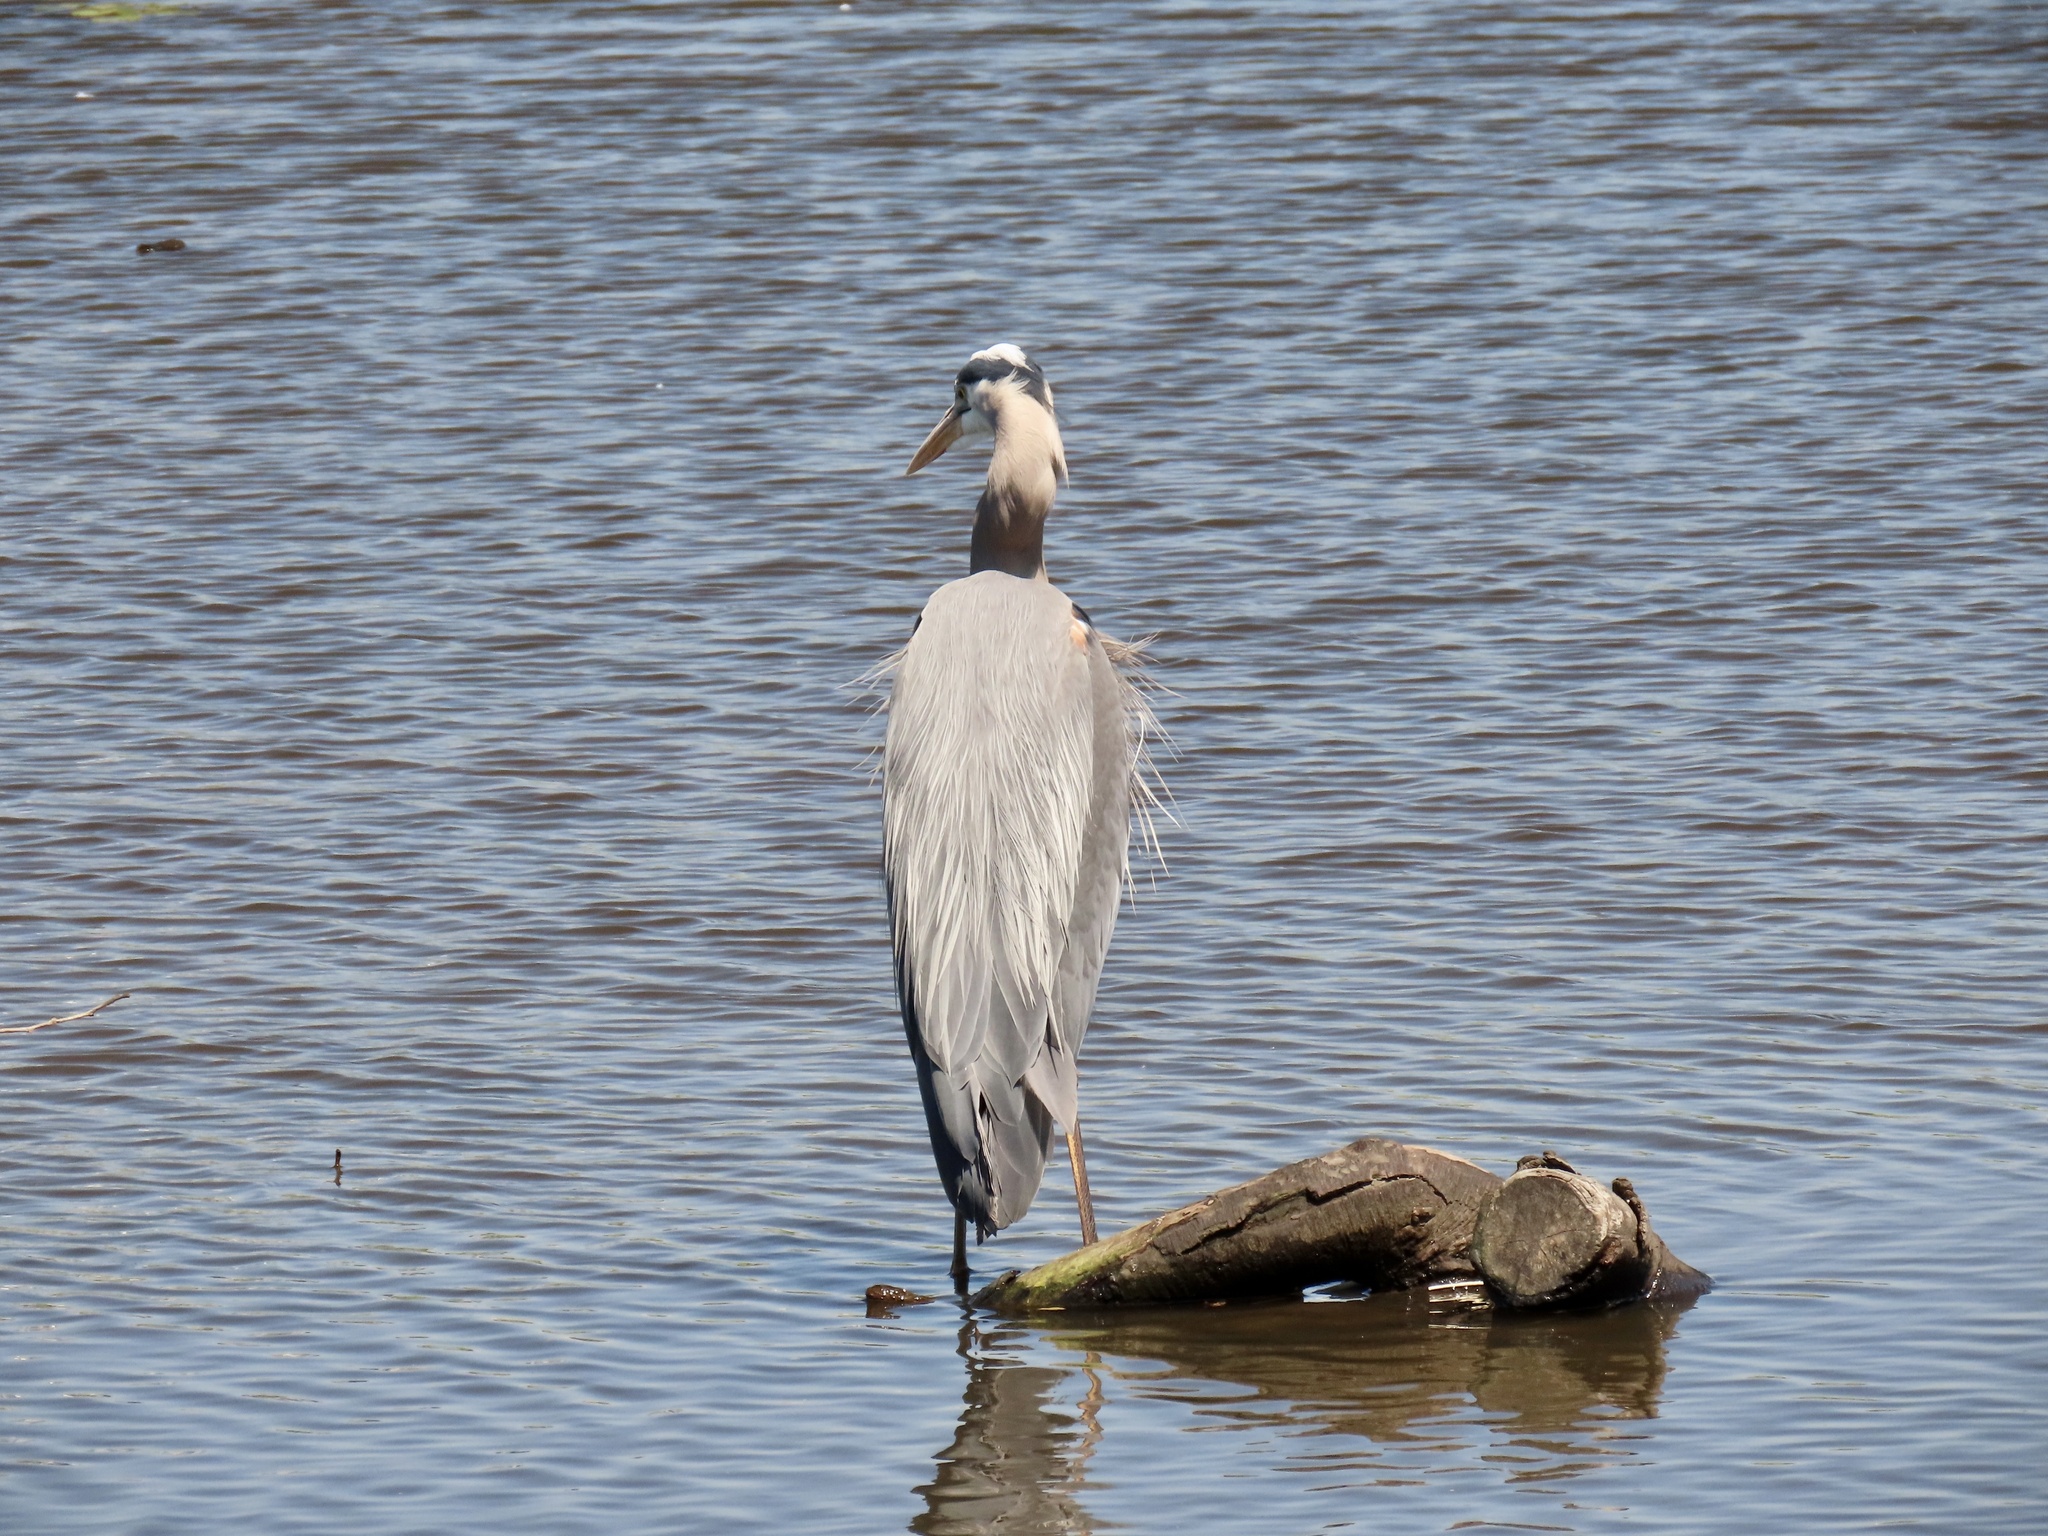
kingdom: Animalia
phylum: Chordata
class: Aves
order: Pelecaniformes
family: Ardeidae
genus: Ardea
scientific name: Ardea herodias
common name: Great blue heron
